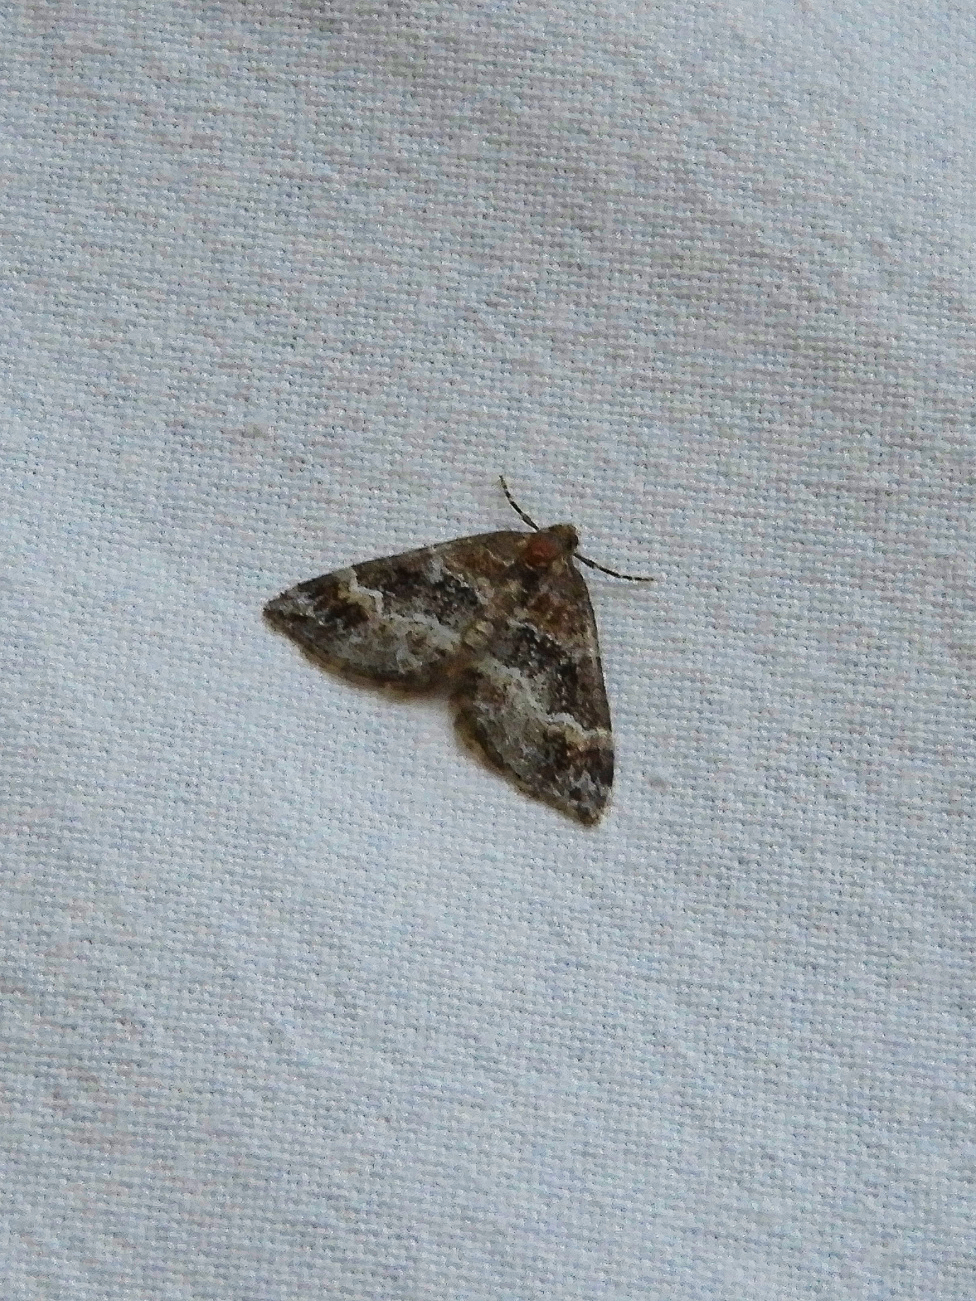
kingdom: Animalia
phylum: Arthropoda
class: Insecta
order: Lepidoptera
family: Geometridae
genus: Perizoma
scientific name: Perizoma bifaciata
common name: Barred rivulet
